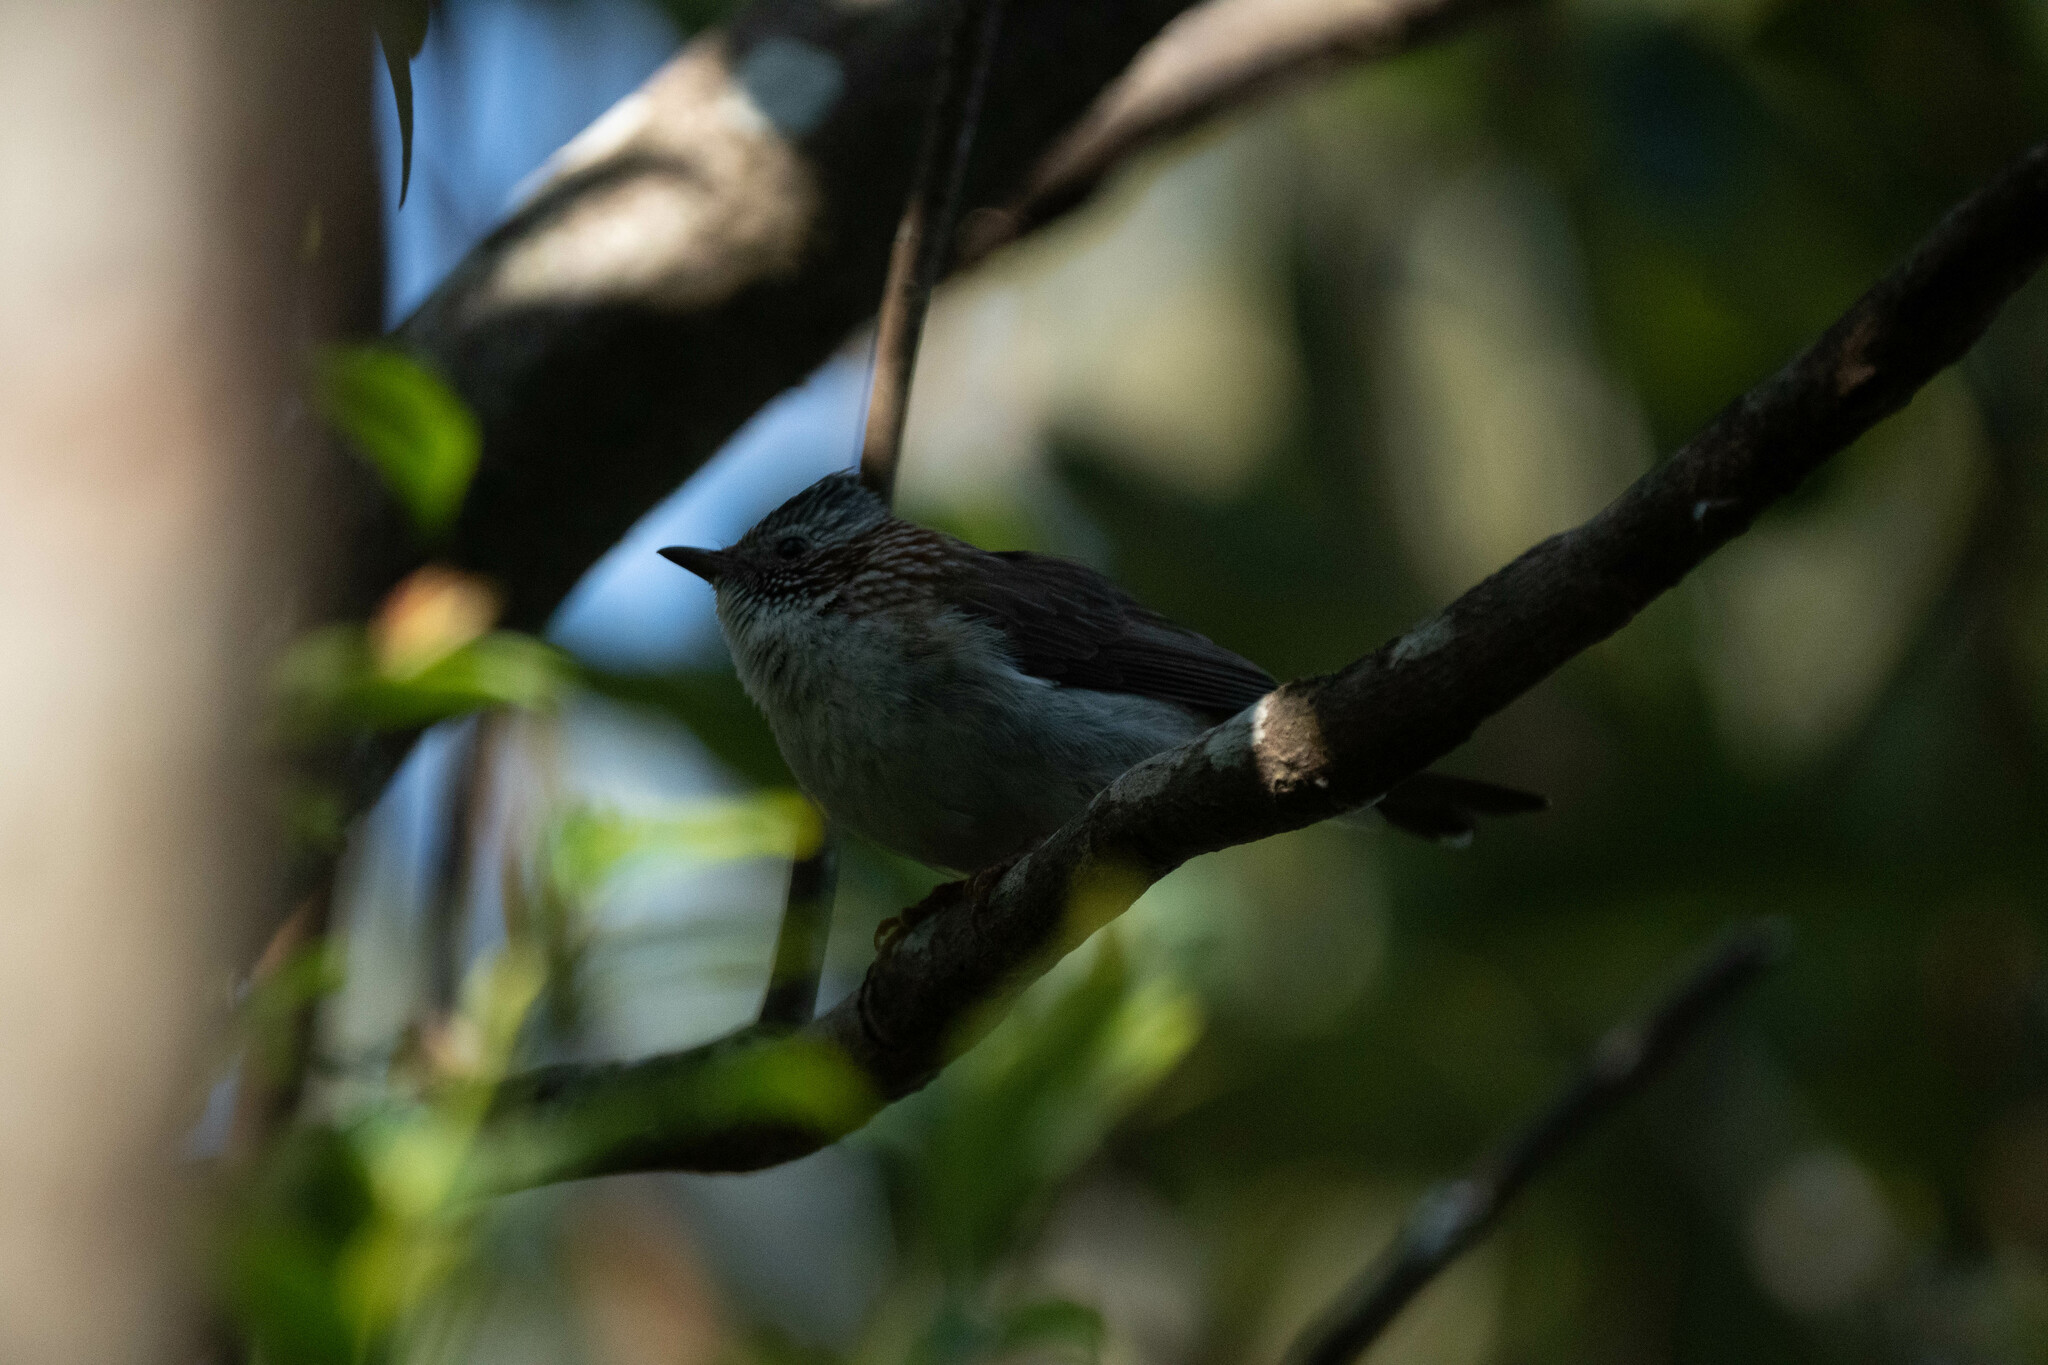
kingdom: Animalia
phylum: Chordata
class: Aves
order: Passeriformes
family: Zosteropidae
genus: Yuhina
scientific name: Yuhina torqueola
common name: Indochinese yuhina
